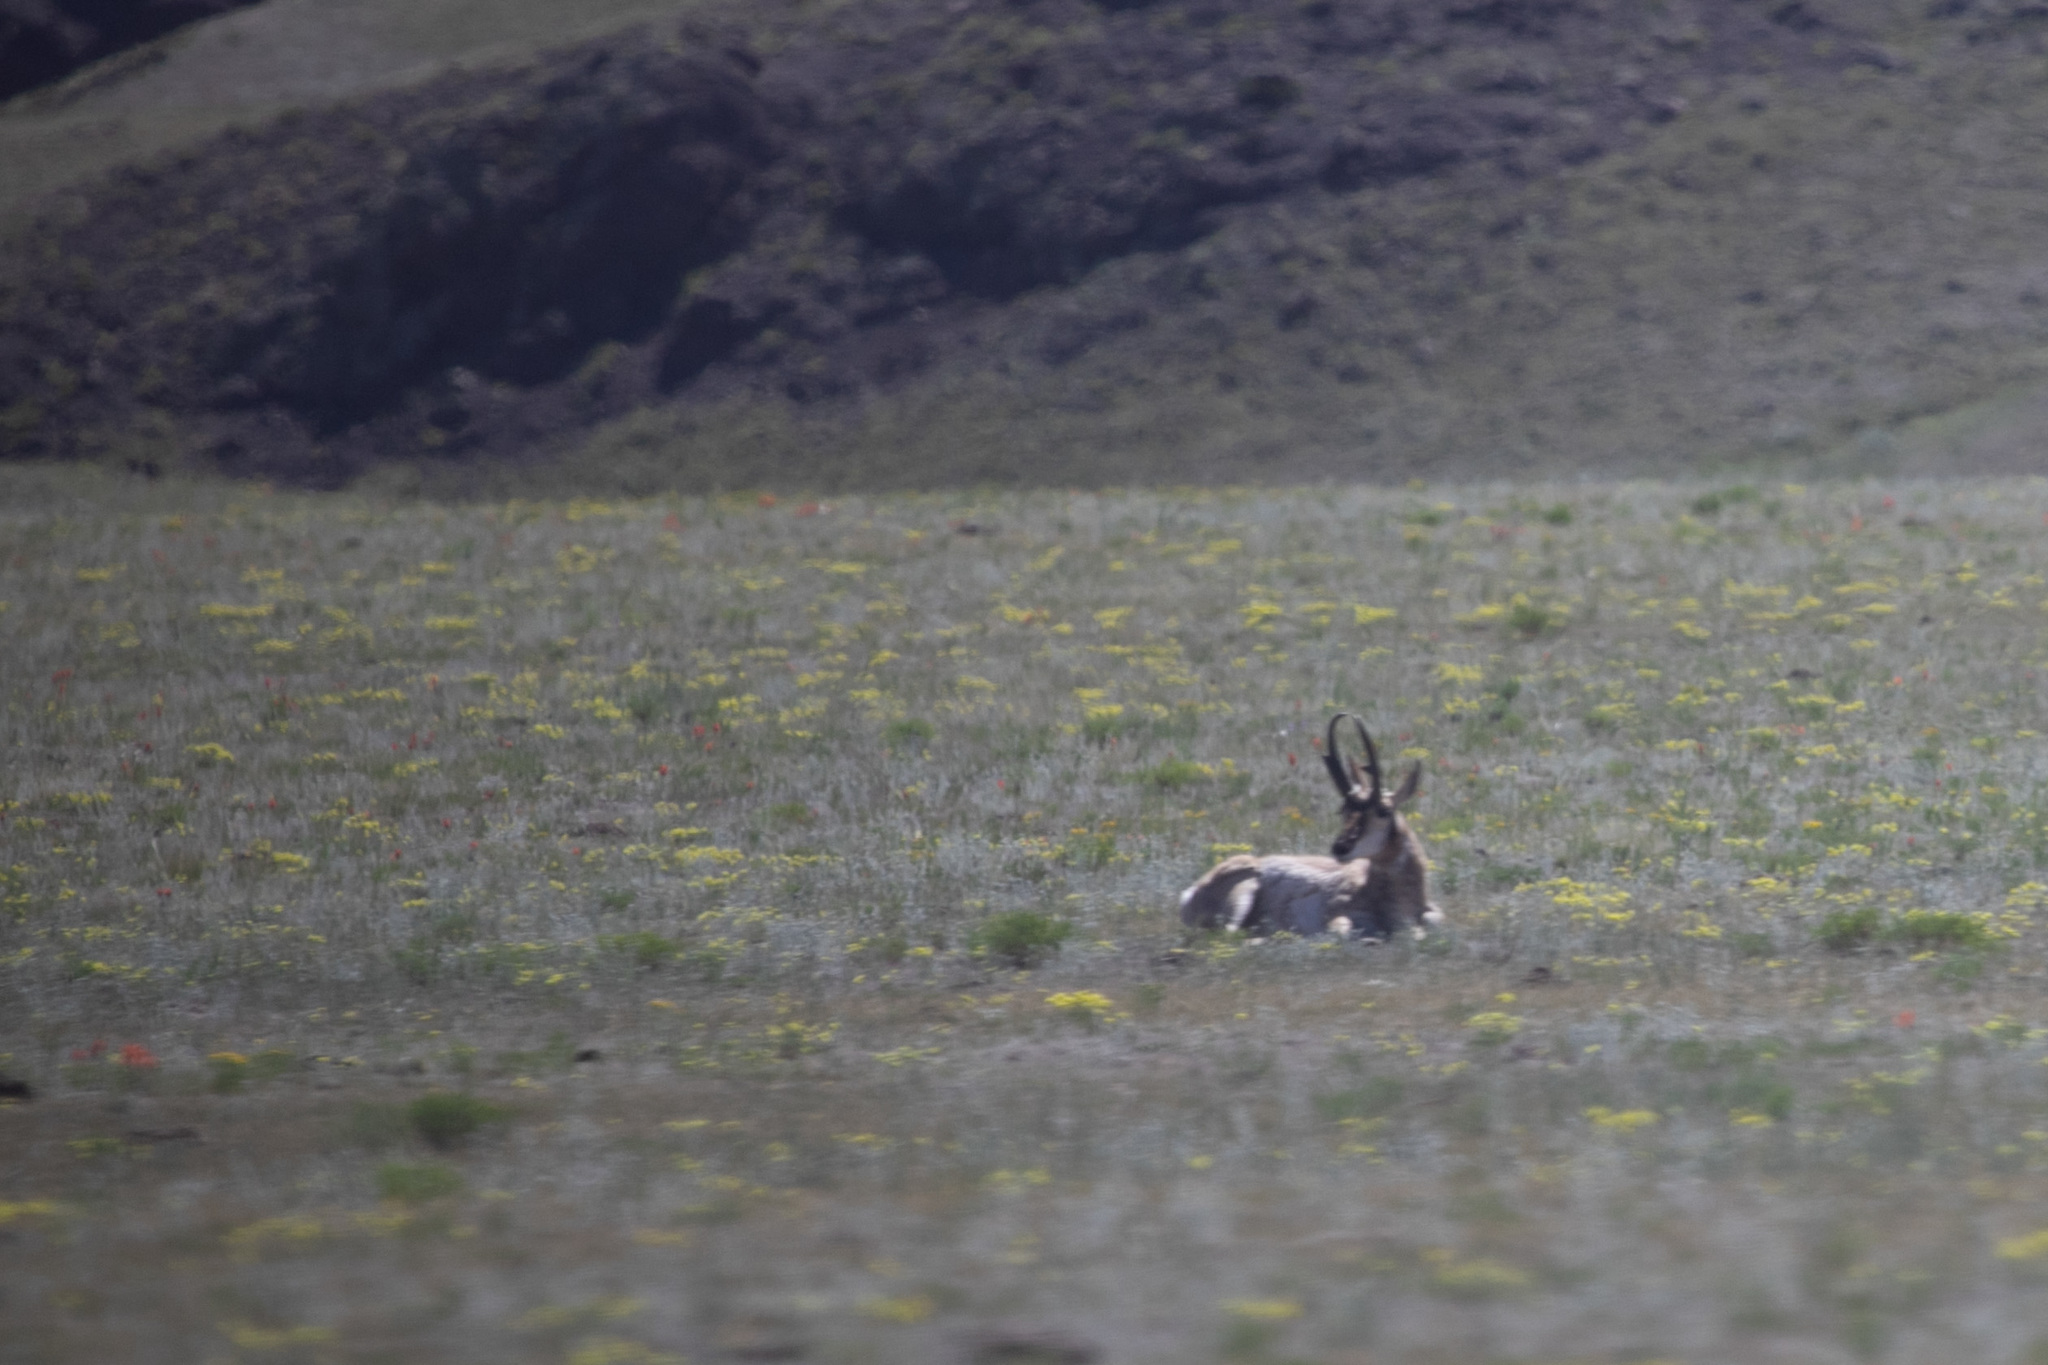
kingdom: Animalia
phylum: Chordata
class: Mammalia
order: Artiodactyla
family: Antilocapridae
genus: Antilocapra
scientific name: Antilocapra americana
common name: Pronghorn
